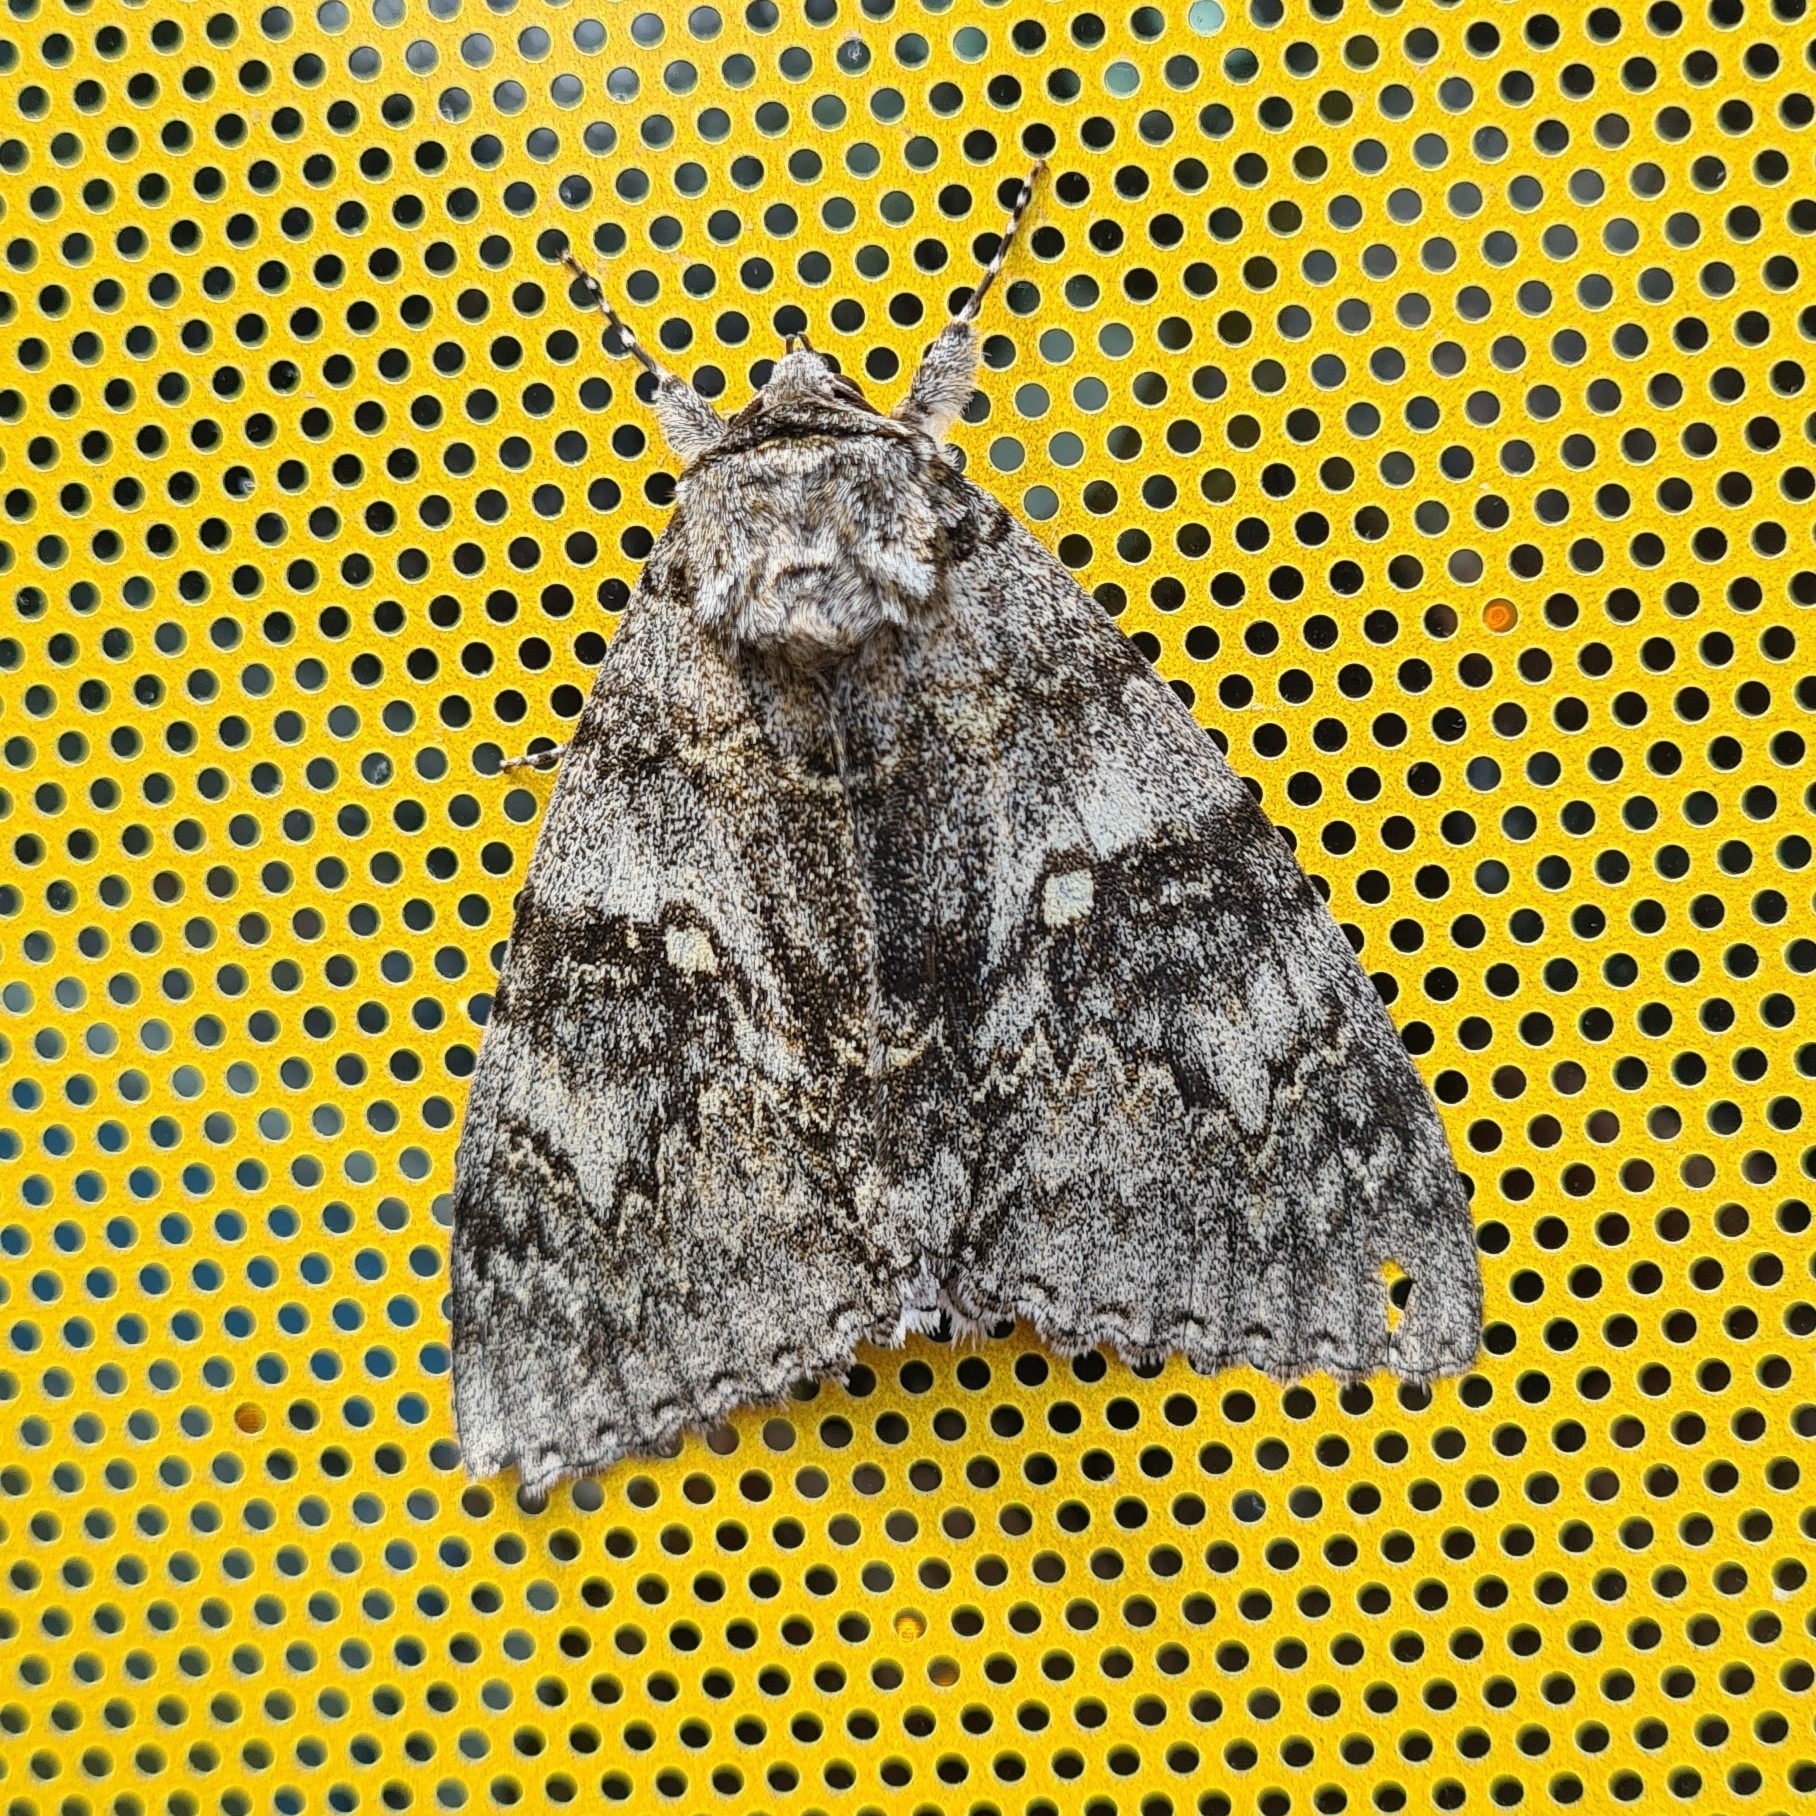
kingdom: Animalia
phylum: Arthropoda
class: Insecta
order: Lepidoptera
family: Erebidae
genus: Catocala
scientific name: Catocala fraxini
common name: Clifden nonpareil
